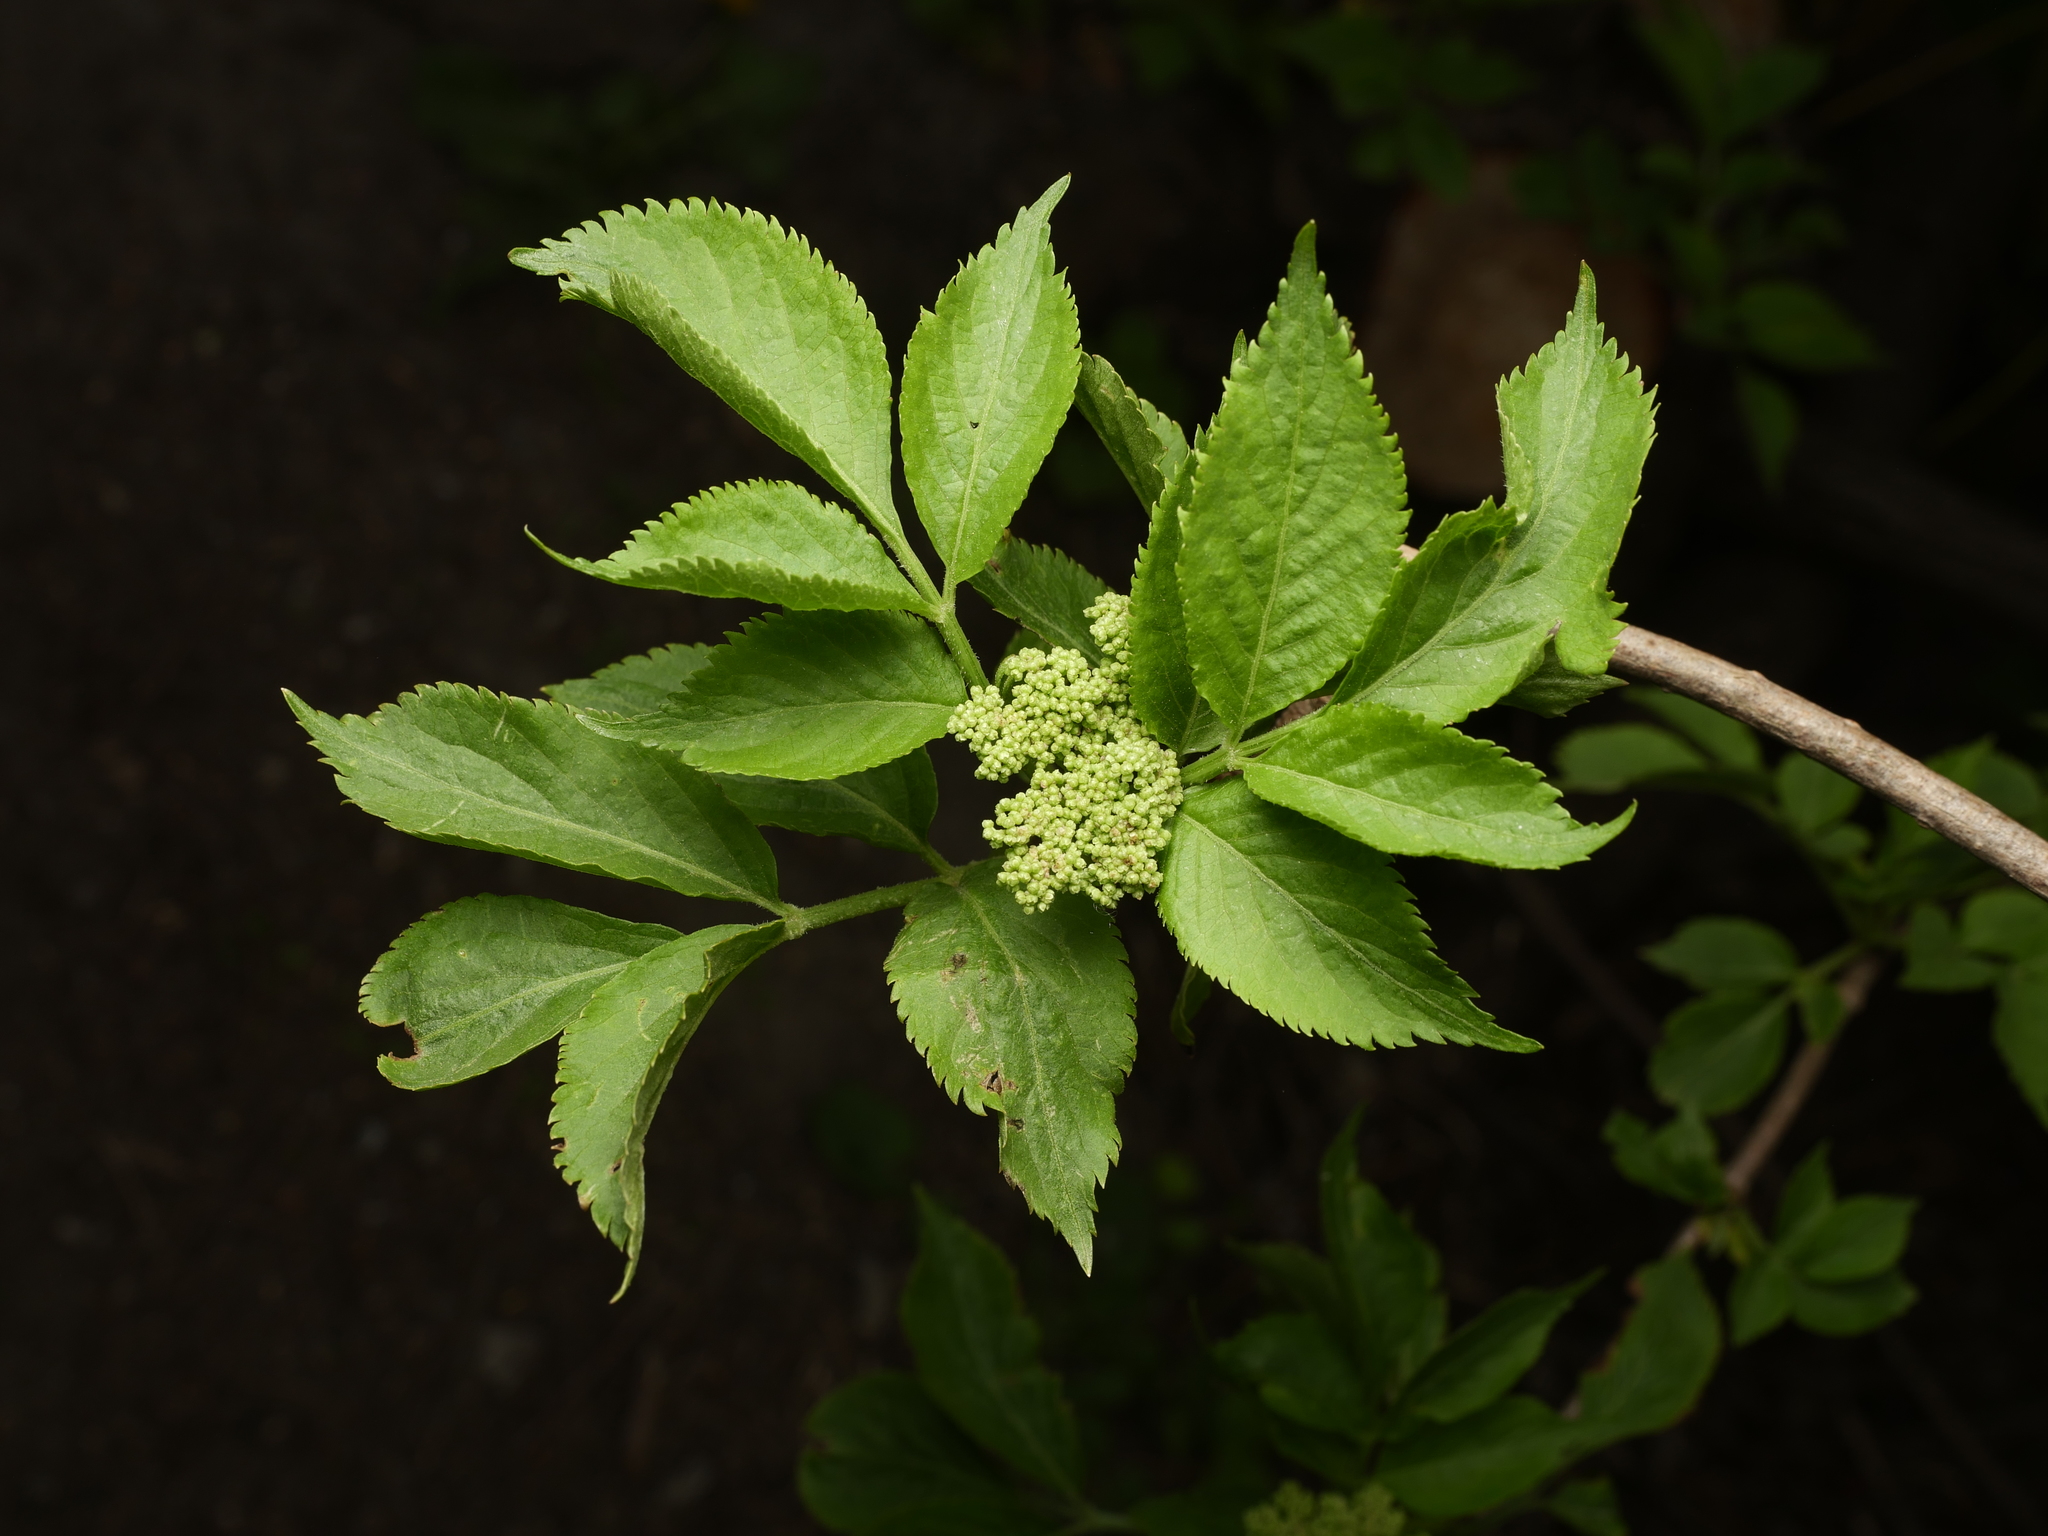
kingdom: Plantae
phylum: Tracheophyta
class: Magnoliopsida
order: Dipsacales
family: Viburnaceae
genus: Sambucus
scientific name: Sambucus nigra
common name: Elder
